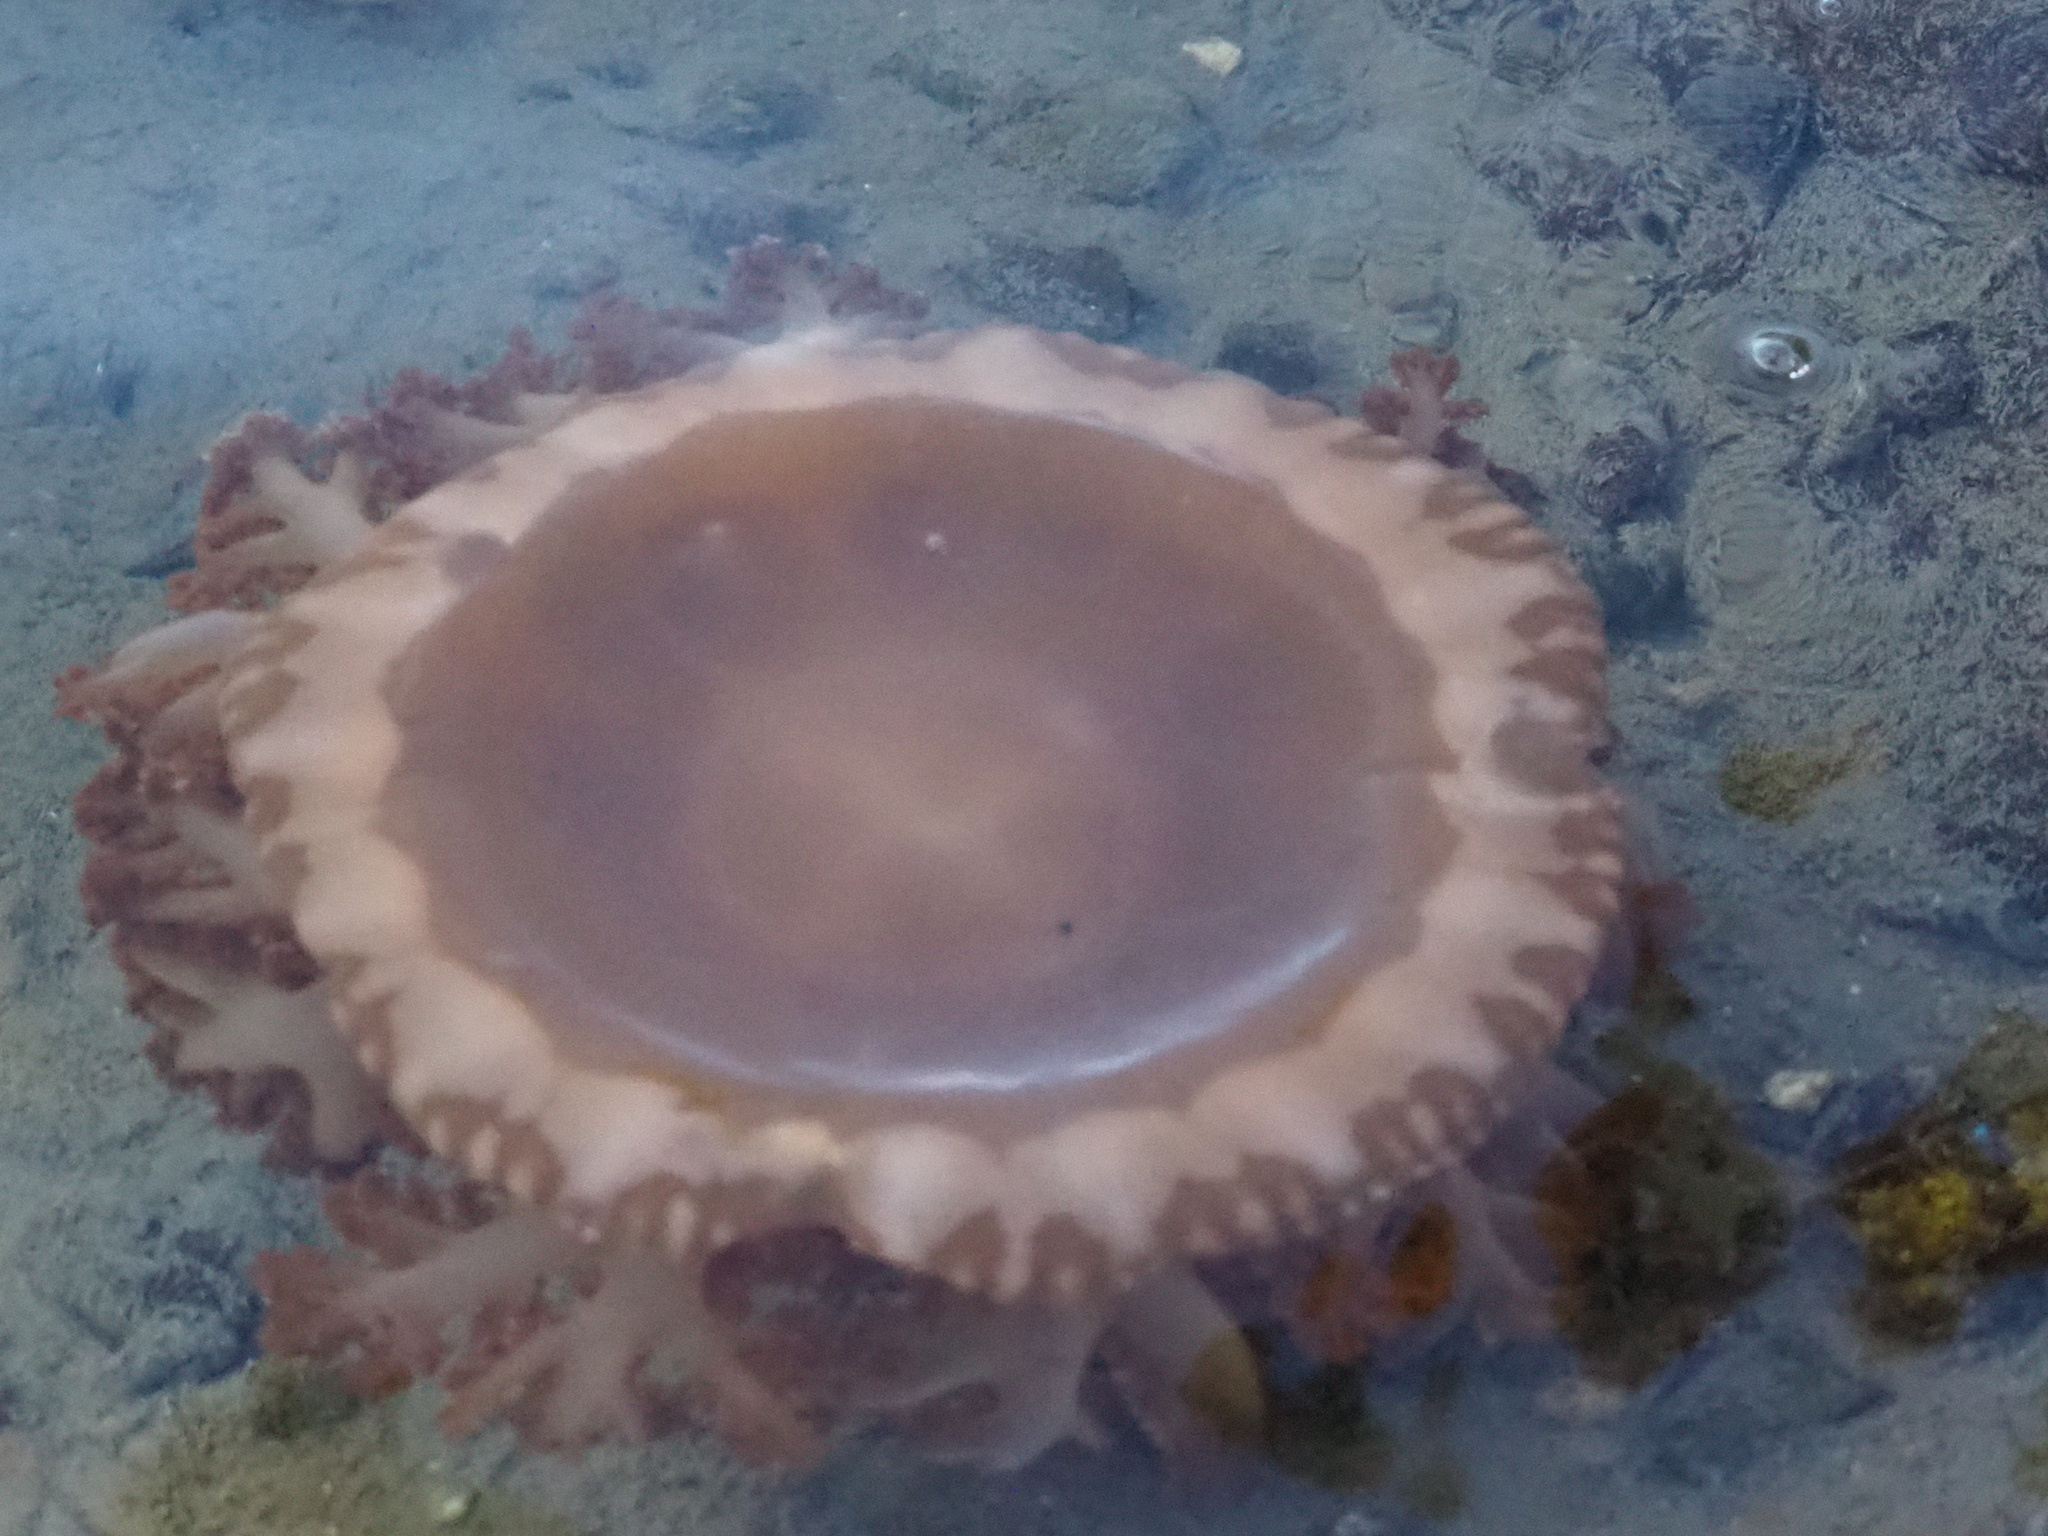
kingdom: Animalia
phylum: Cnidaria
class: Scyphozoa
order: Rhizostomeae
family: Cassiopeidae
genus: Cassiopea
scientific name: Cassiopea andromeda
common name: Upside-down jellyfish
